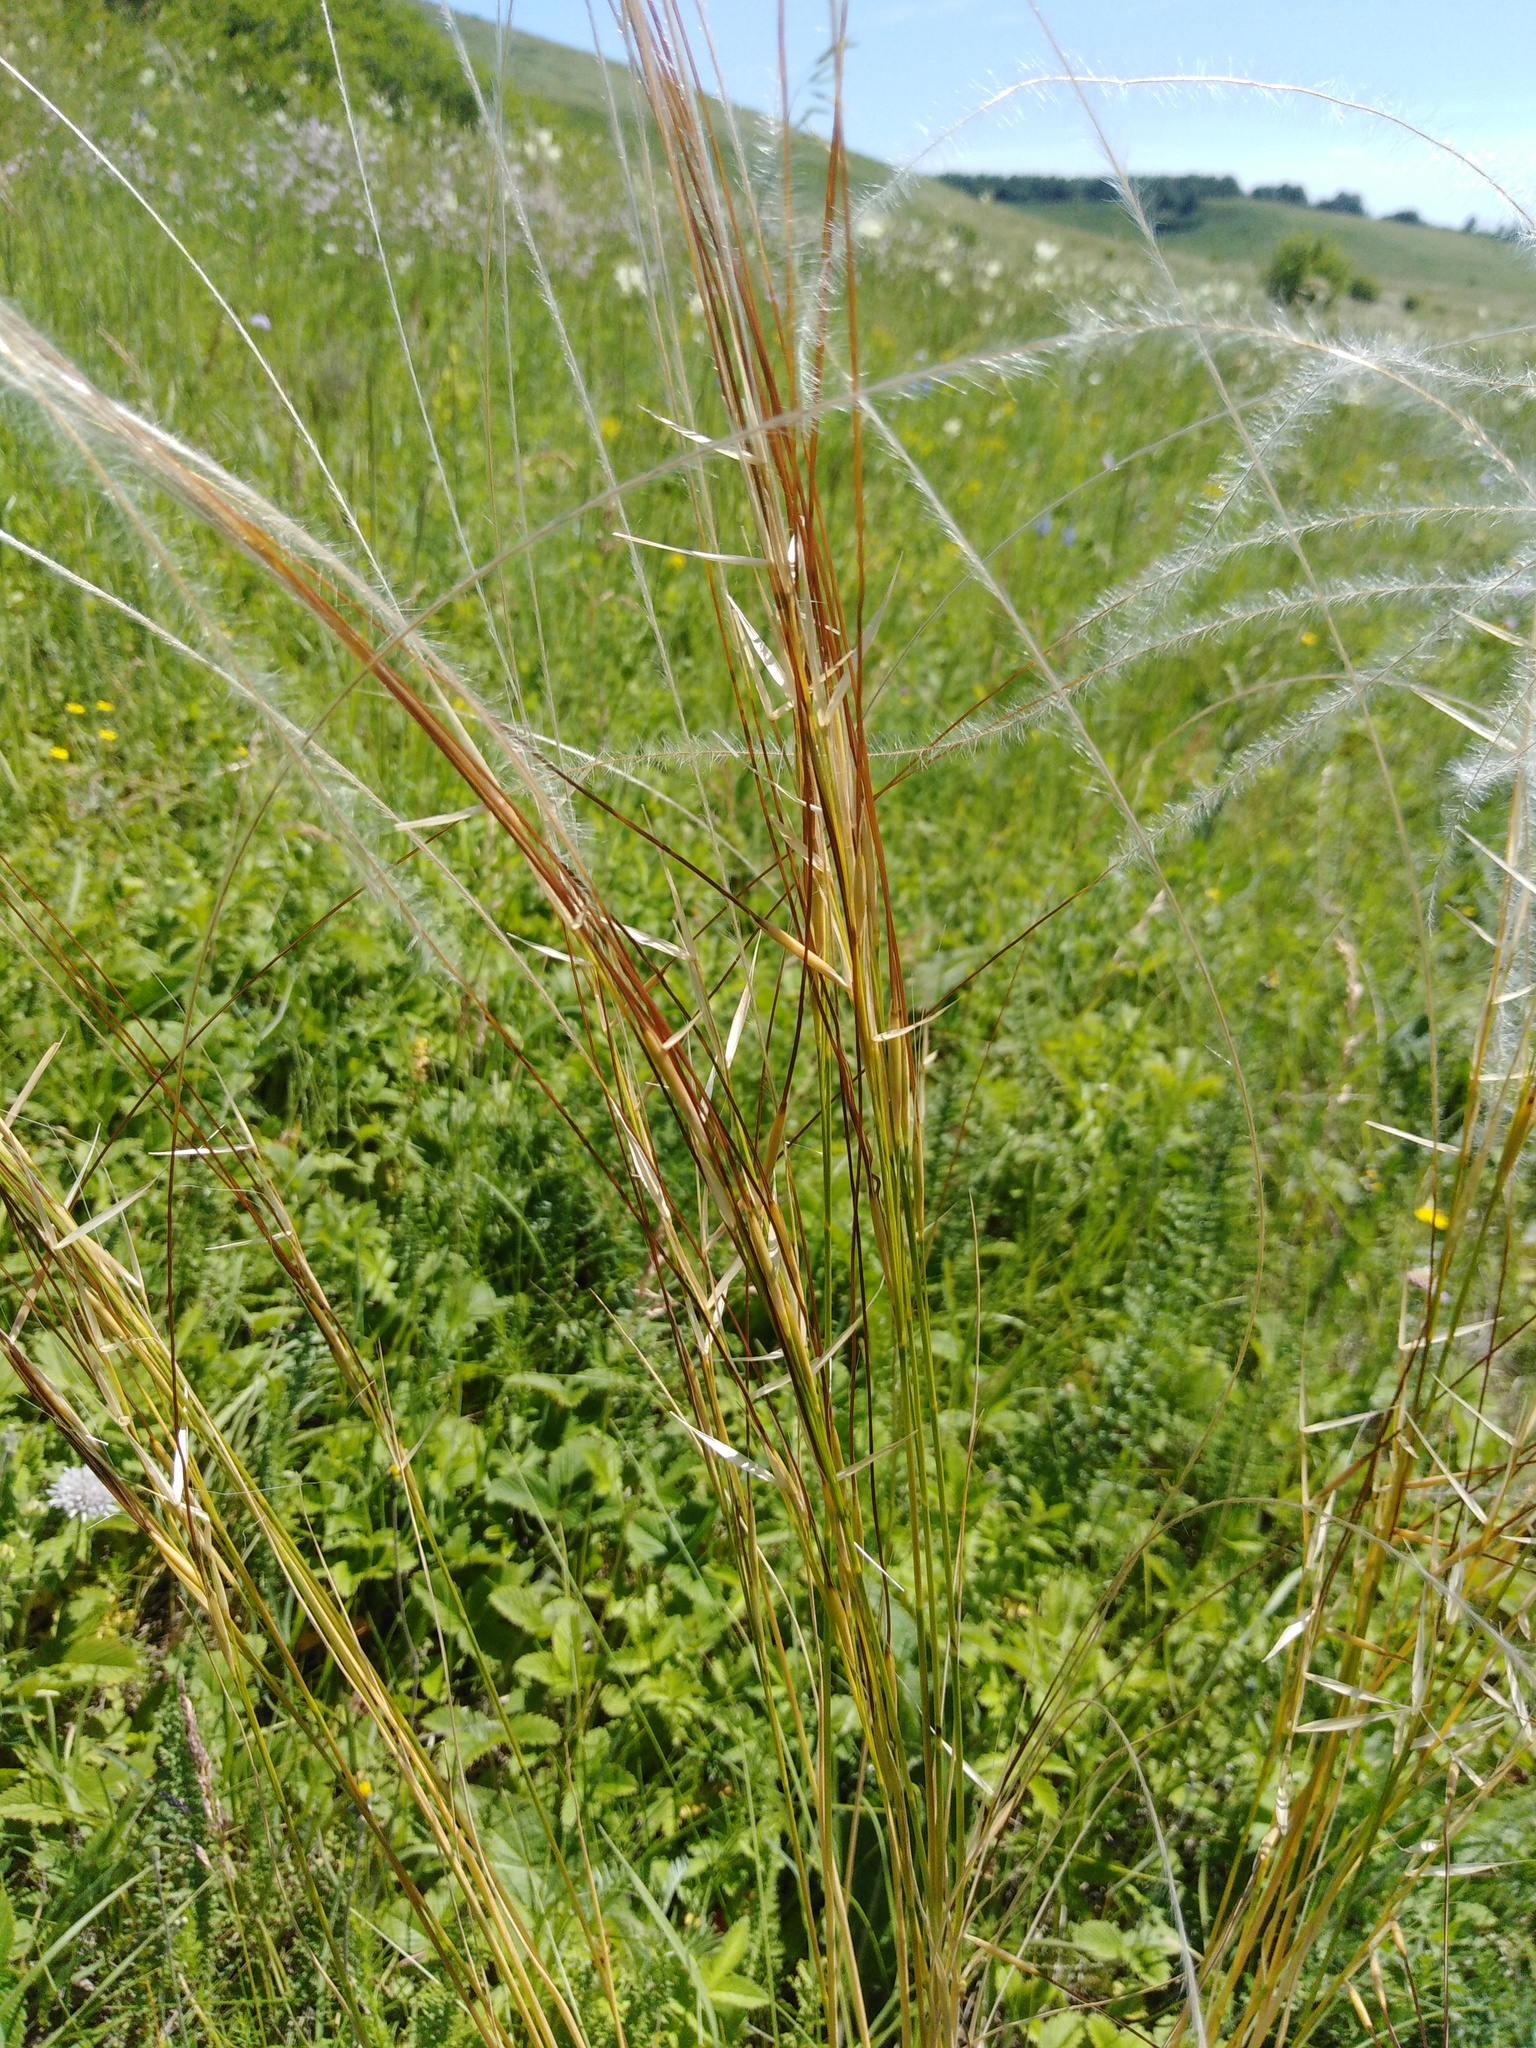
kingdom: Plantae
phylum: Tracheophyta
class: Liliopsida
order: Poales
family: Poaceae
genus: Stipa
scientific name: Stipa pennata
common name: European feather grass
